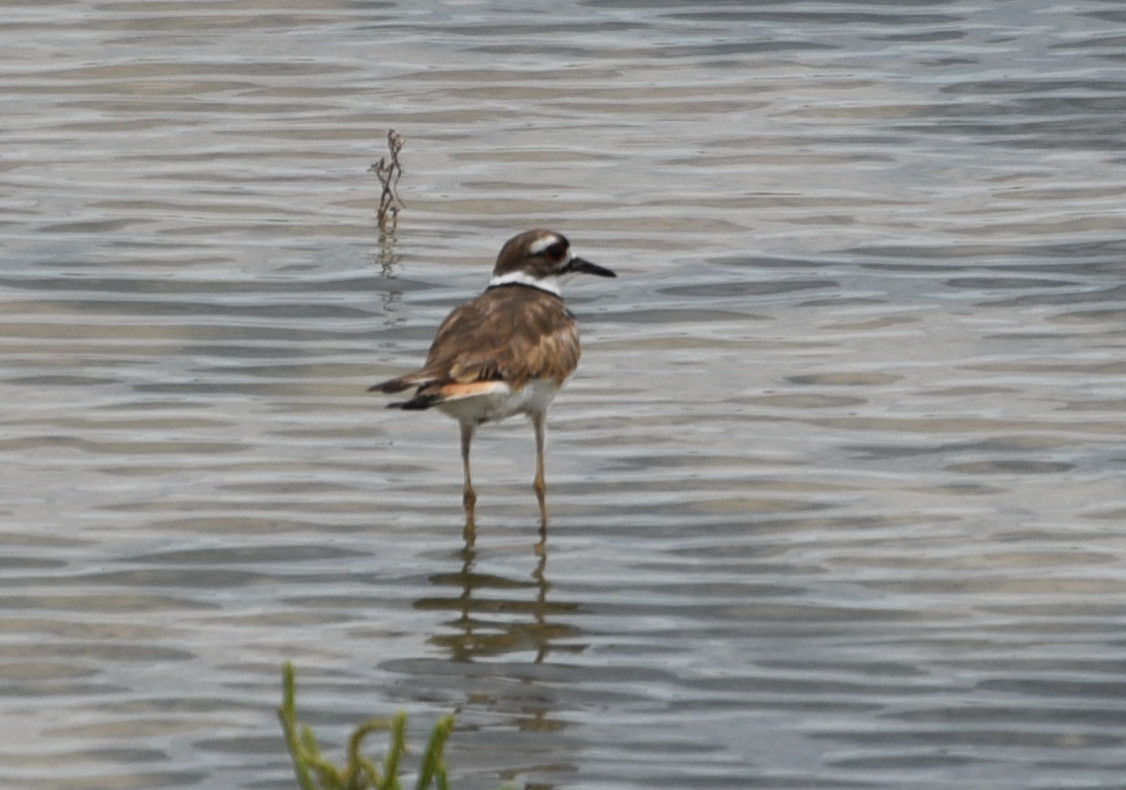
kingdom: Animalia
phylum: Chordata
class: Aves
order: Charadriiformes
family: Charadriidae
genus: Charadrius
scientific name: Charadrius vociferus
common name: Killdeer
